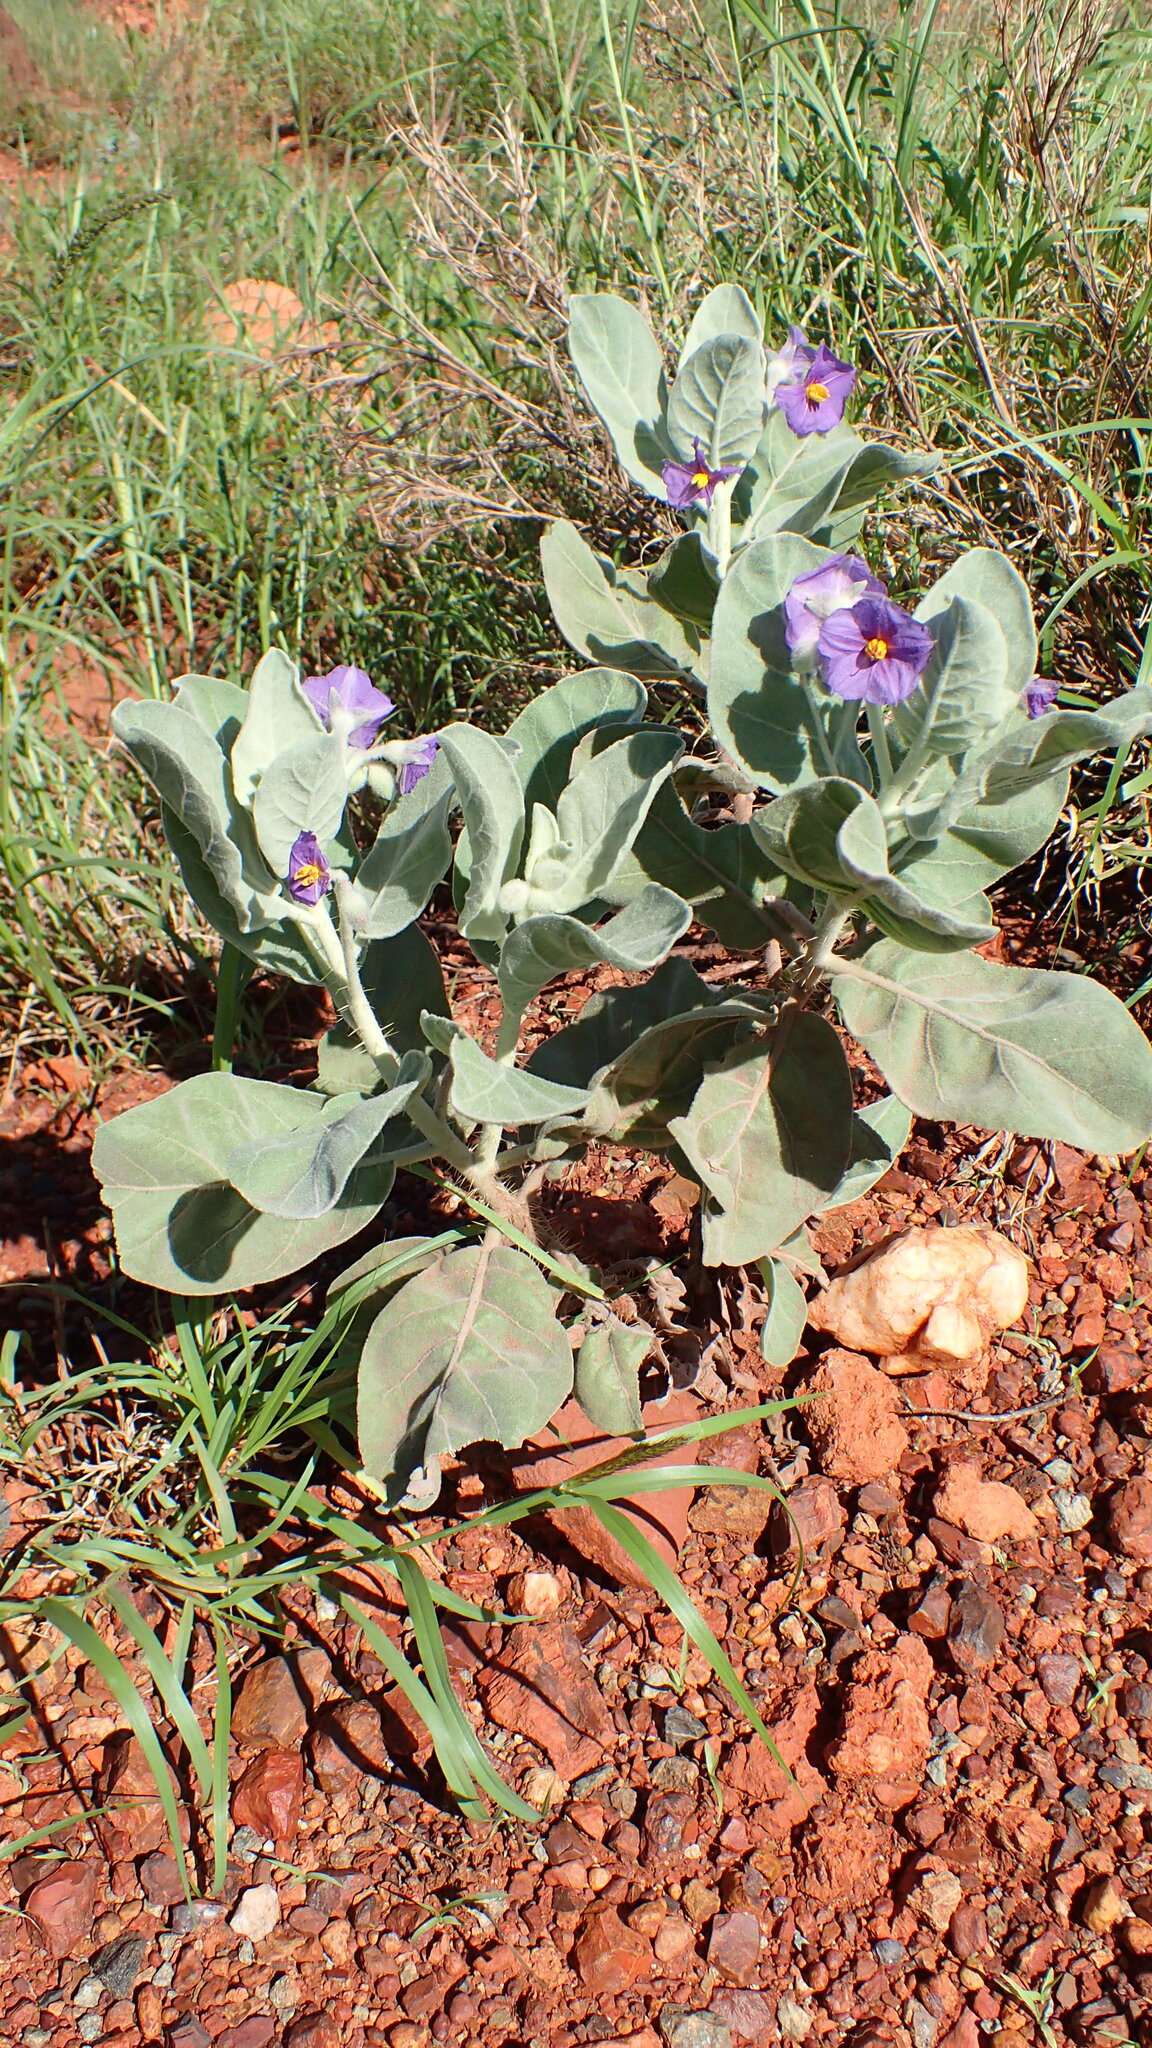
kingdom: Plantae
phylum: Tracheophyta
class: Magnoliopsida
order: Solanales
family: Solanaceae
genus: Solanum
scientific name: Solanum lasiophyllum
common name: Flannelbush
